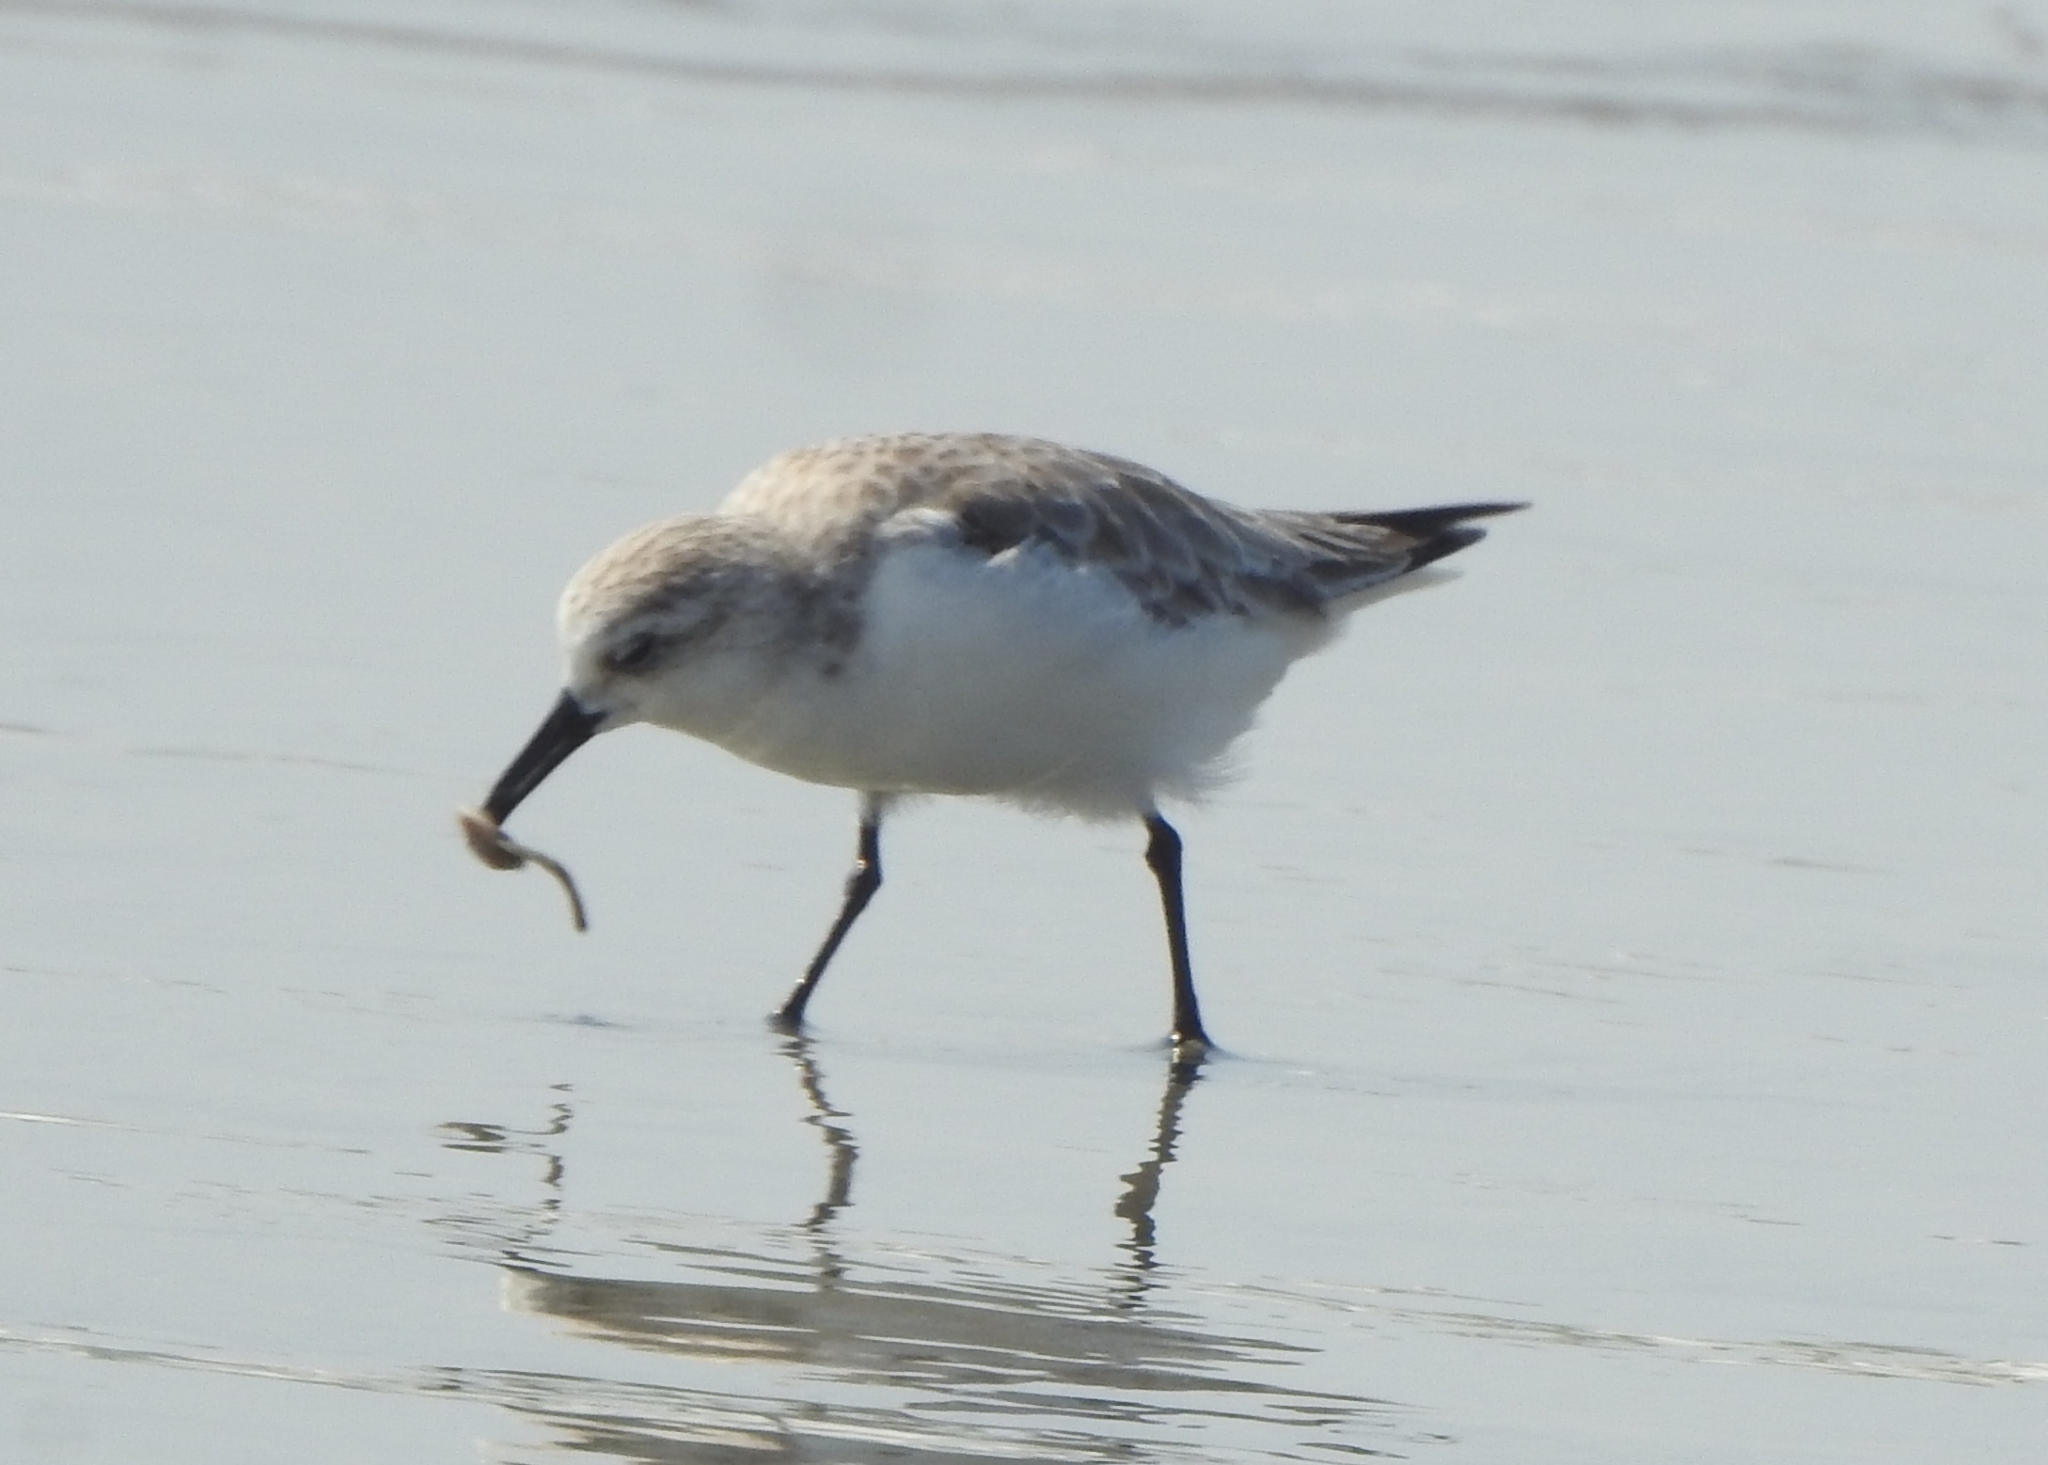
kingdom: Animalia
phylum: Chordata
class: Aves
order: Charadriiformes
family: Scolopacidae
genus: Calidris
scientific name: Calidris alba
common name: Sanderling
